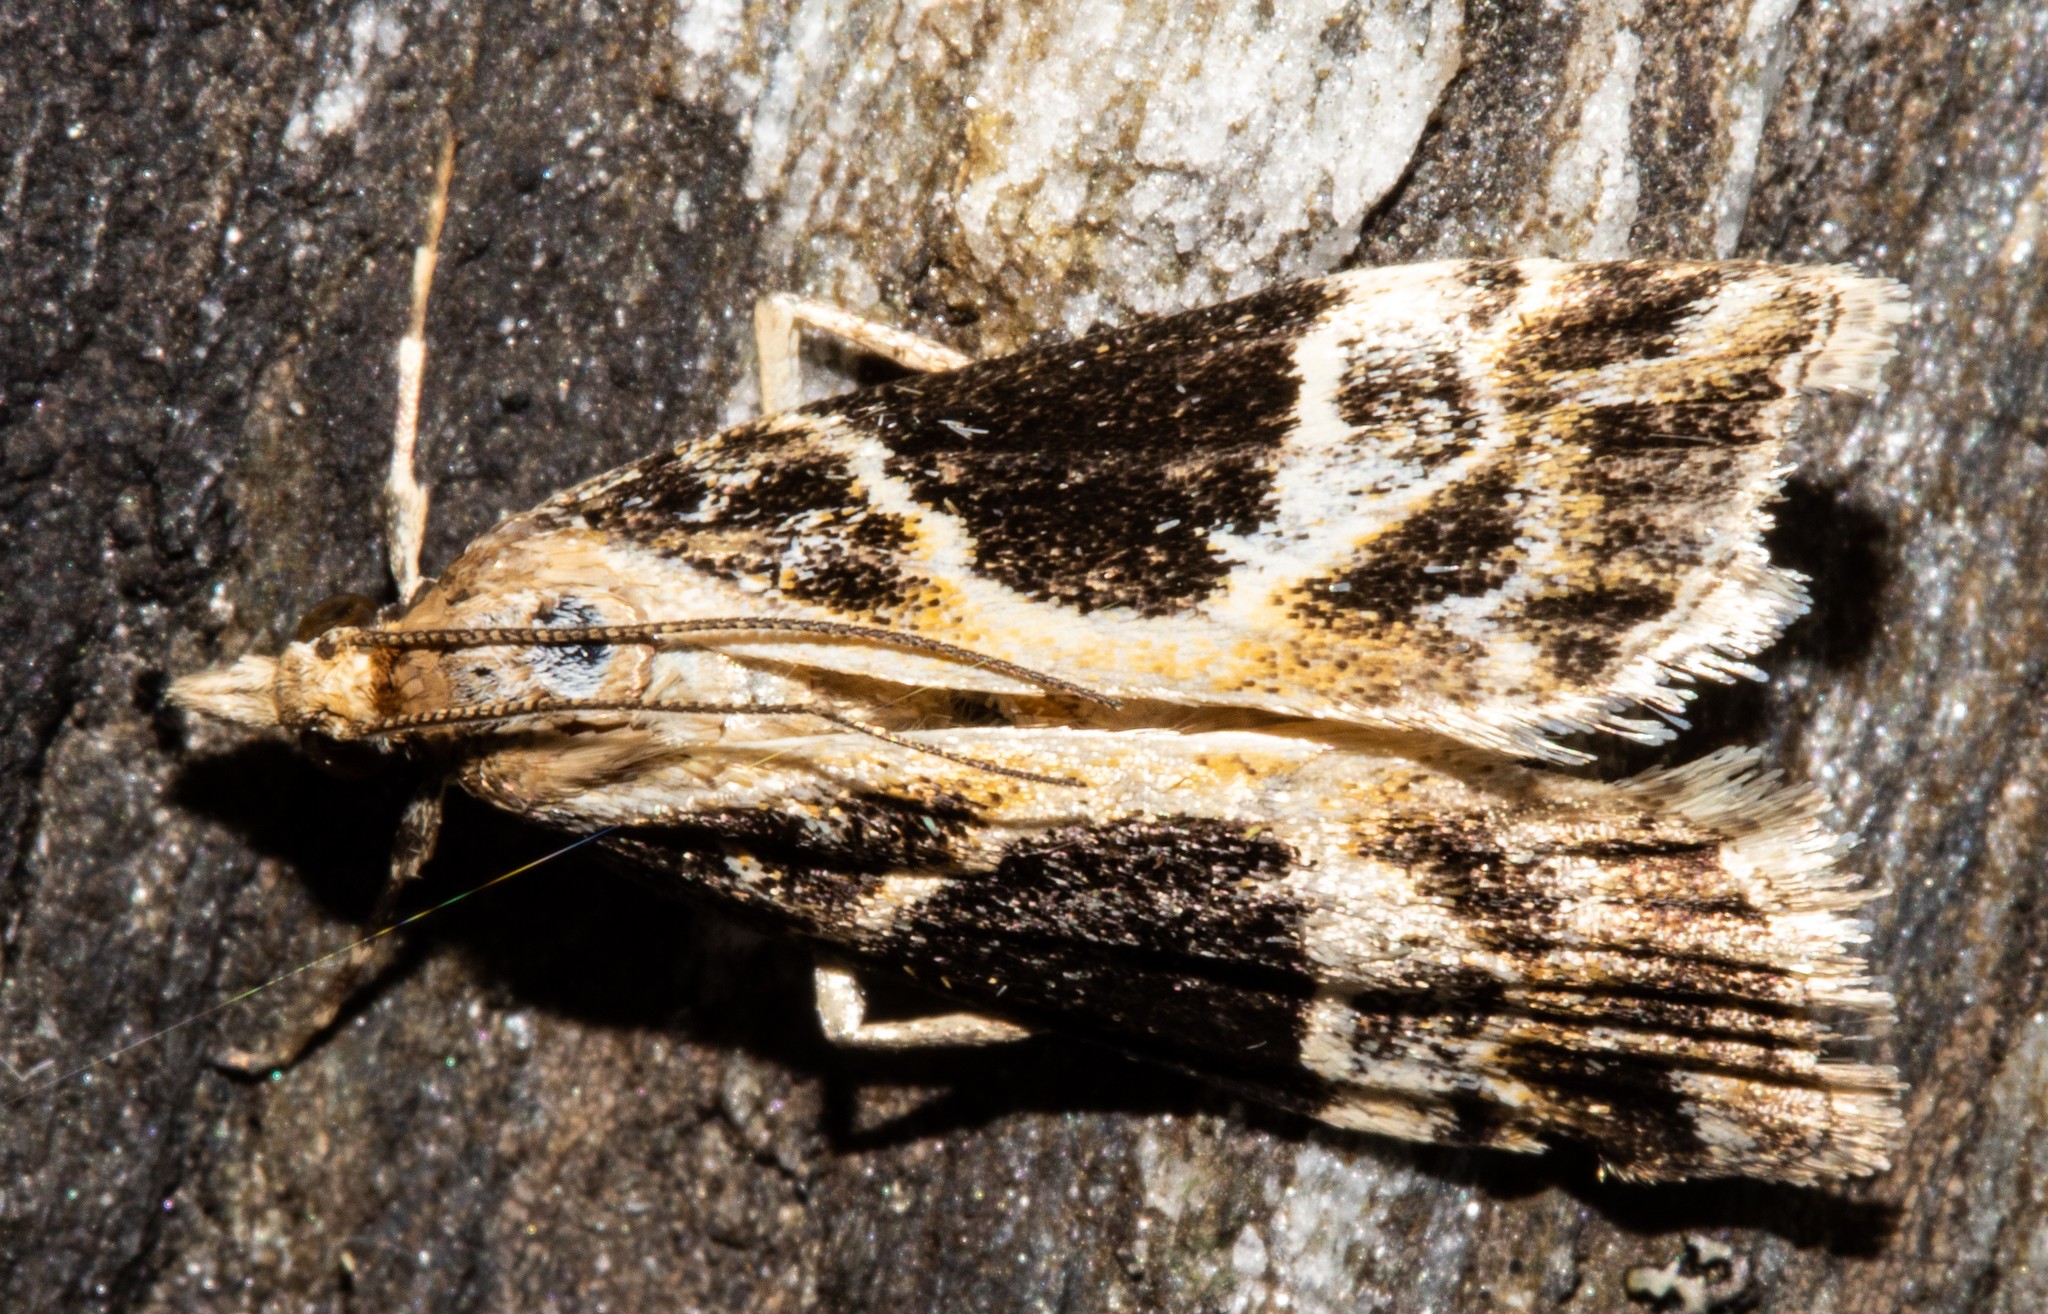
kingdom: Animalia
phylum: Arthropoda
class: Insecta
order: Lepidoptera
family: Crambidae
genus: Eudonia
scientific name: Eudonia melanaegis
